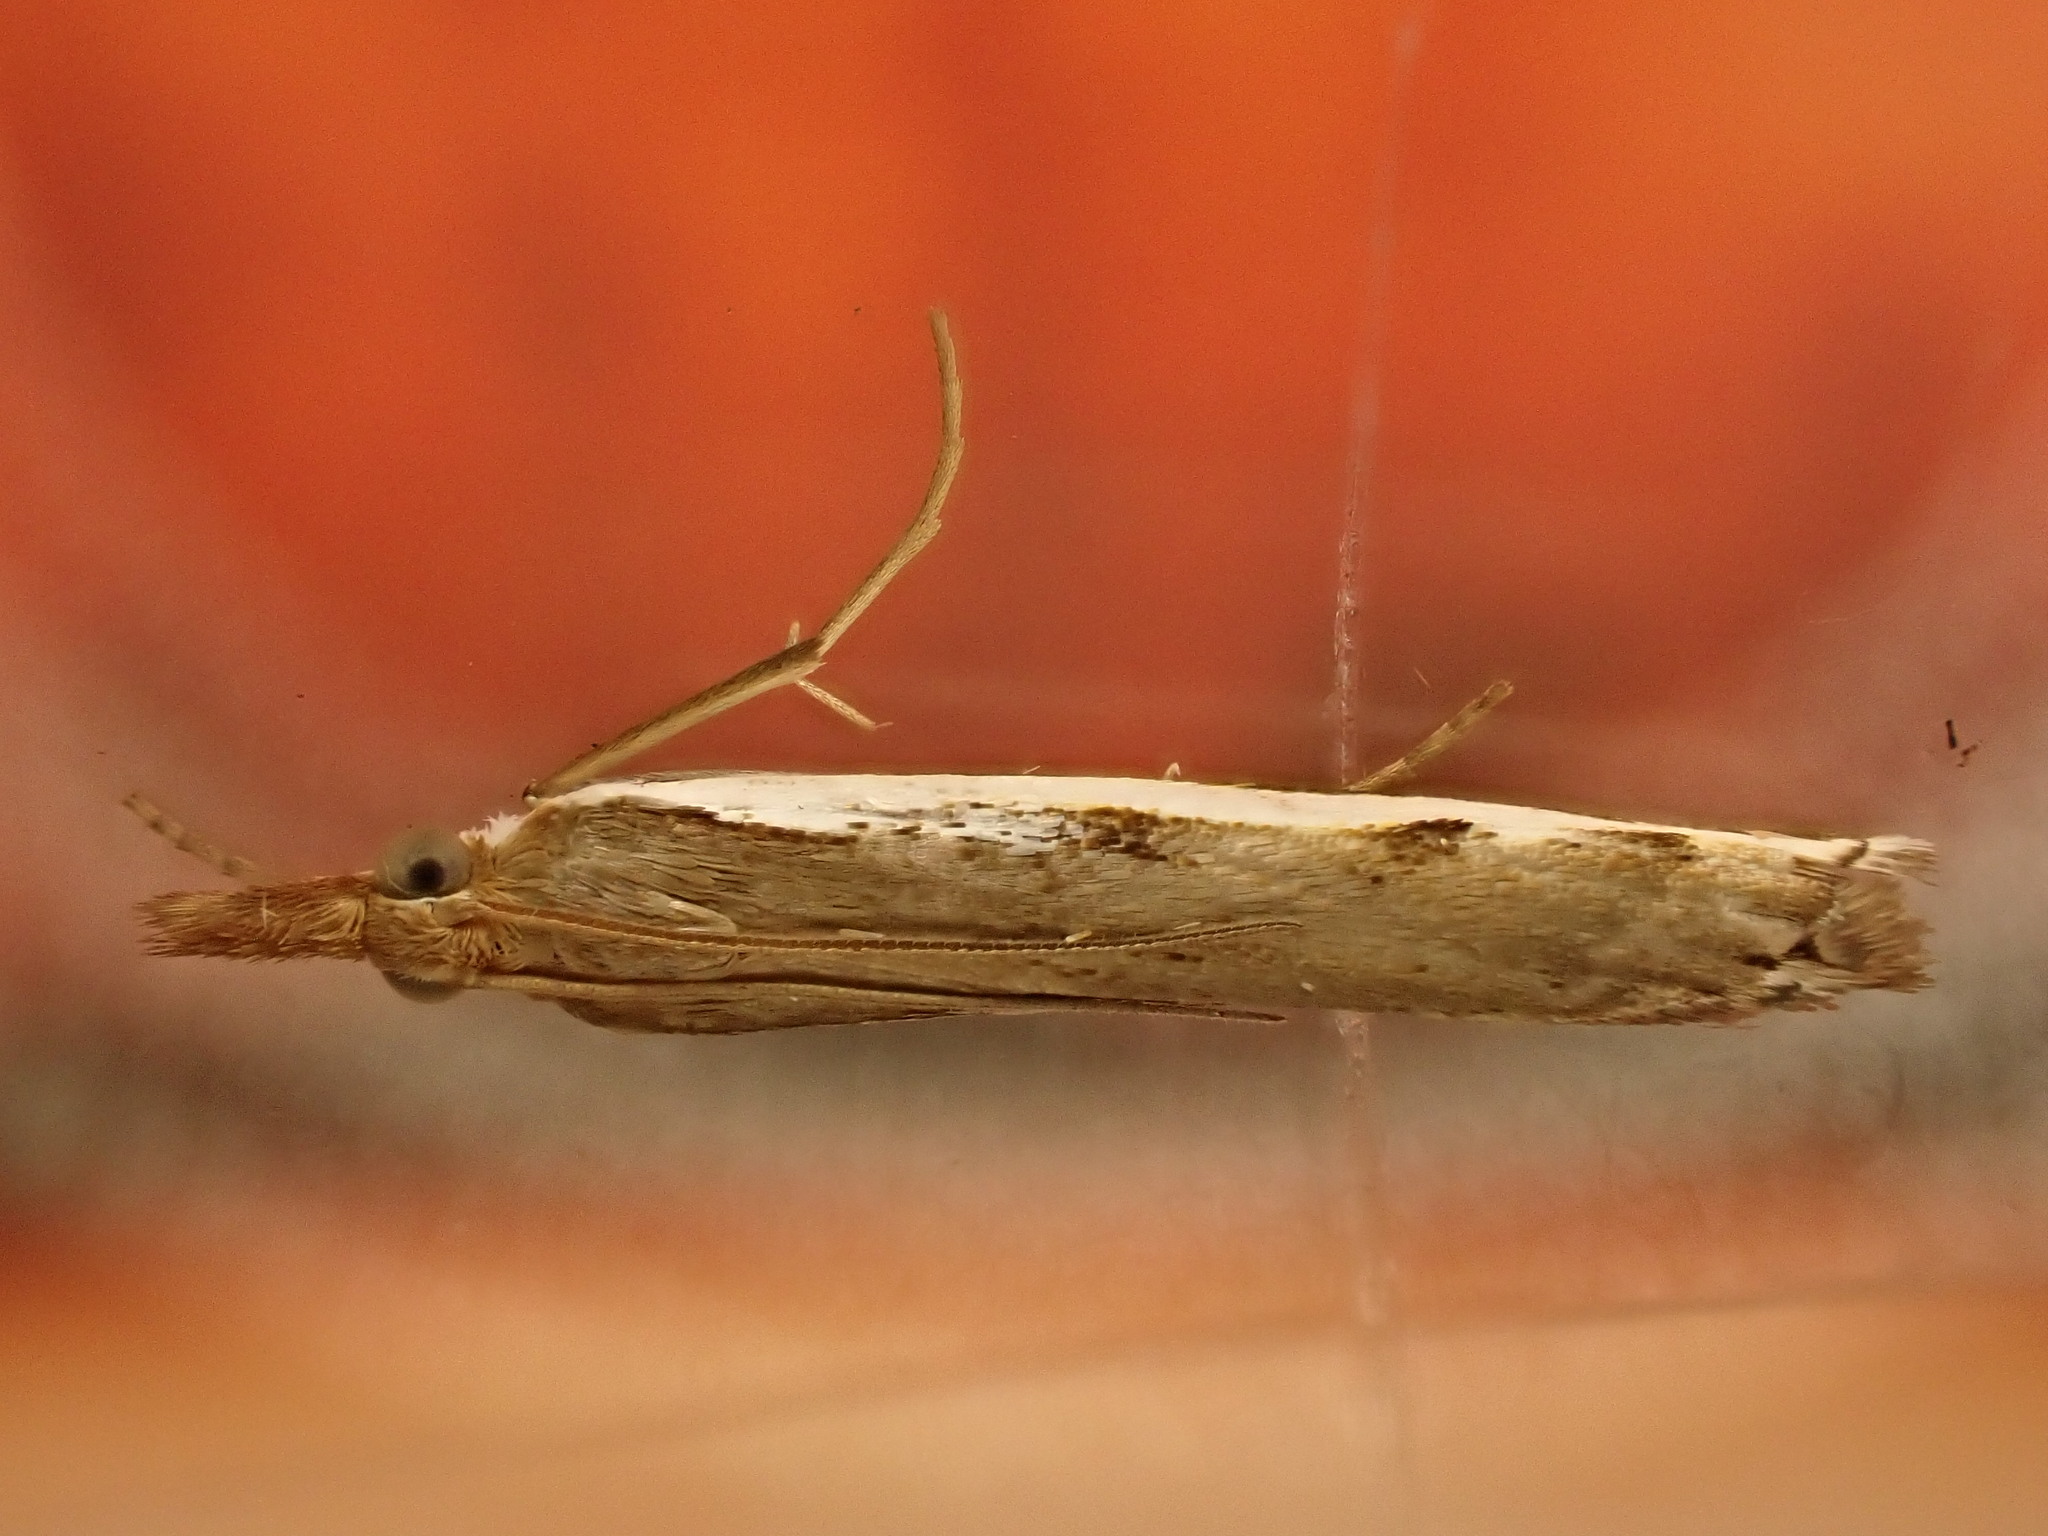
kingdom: Animalia
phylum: Arthropoda
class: Insecta
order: Lepidoptera
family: Crambidae
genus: Orocrambus
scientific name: Orocrambus flexuosellus
